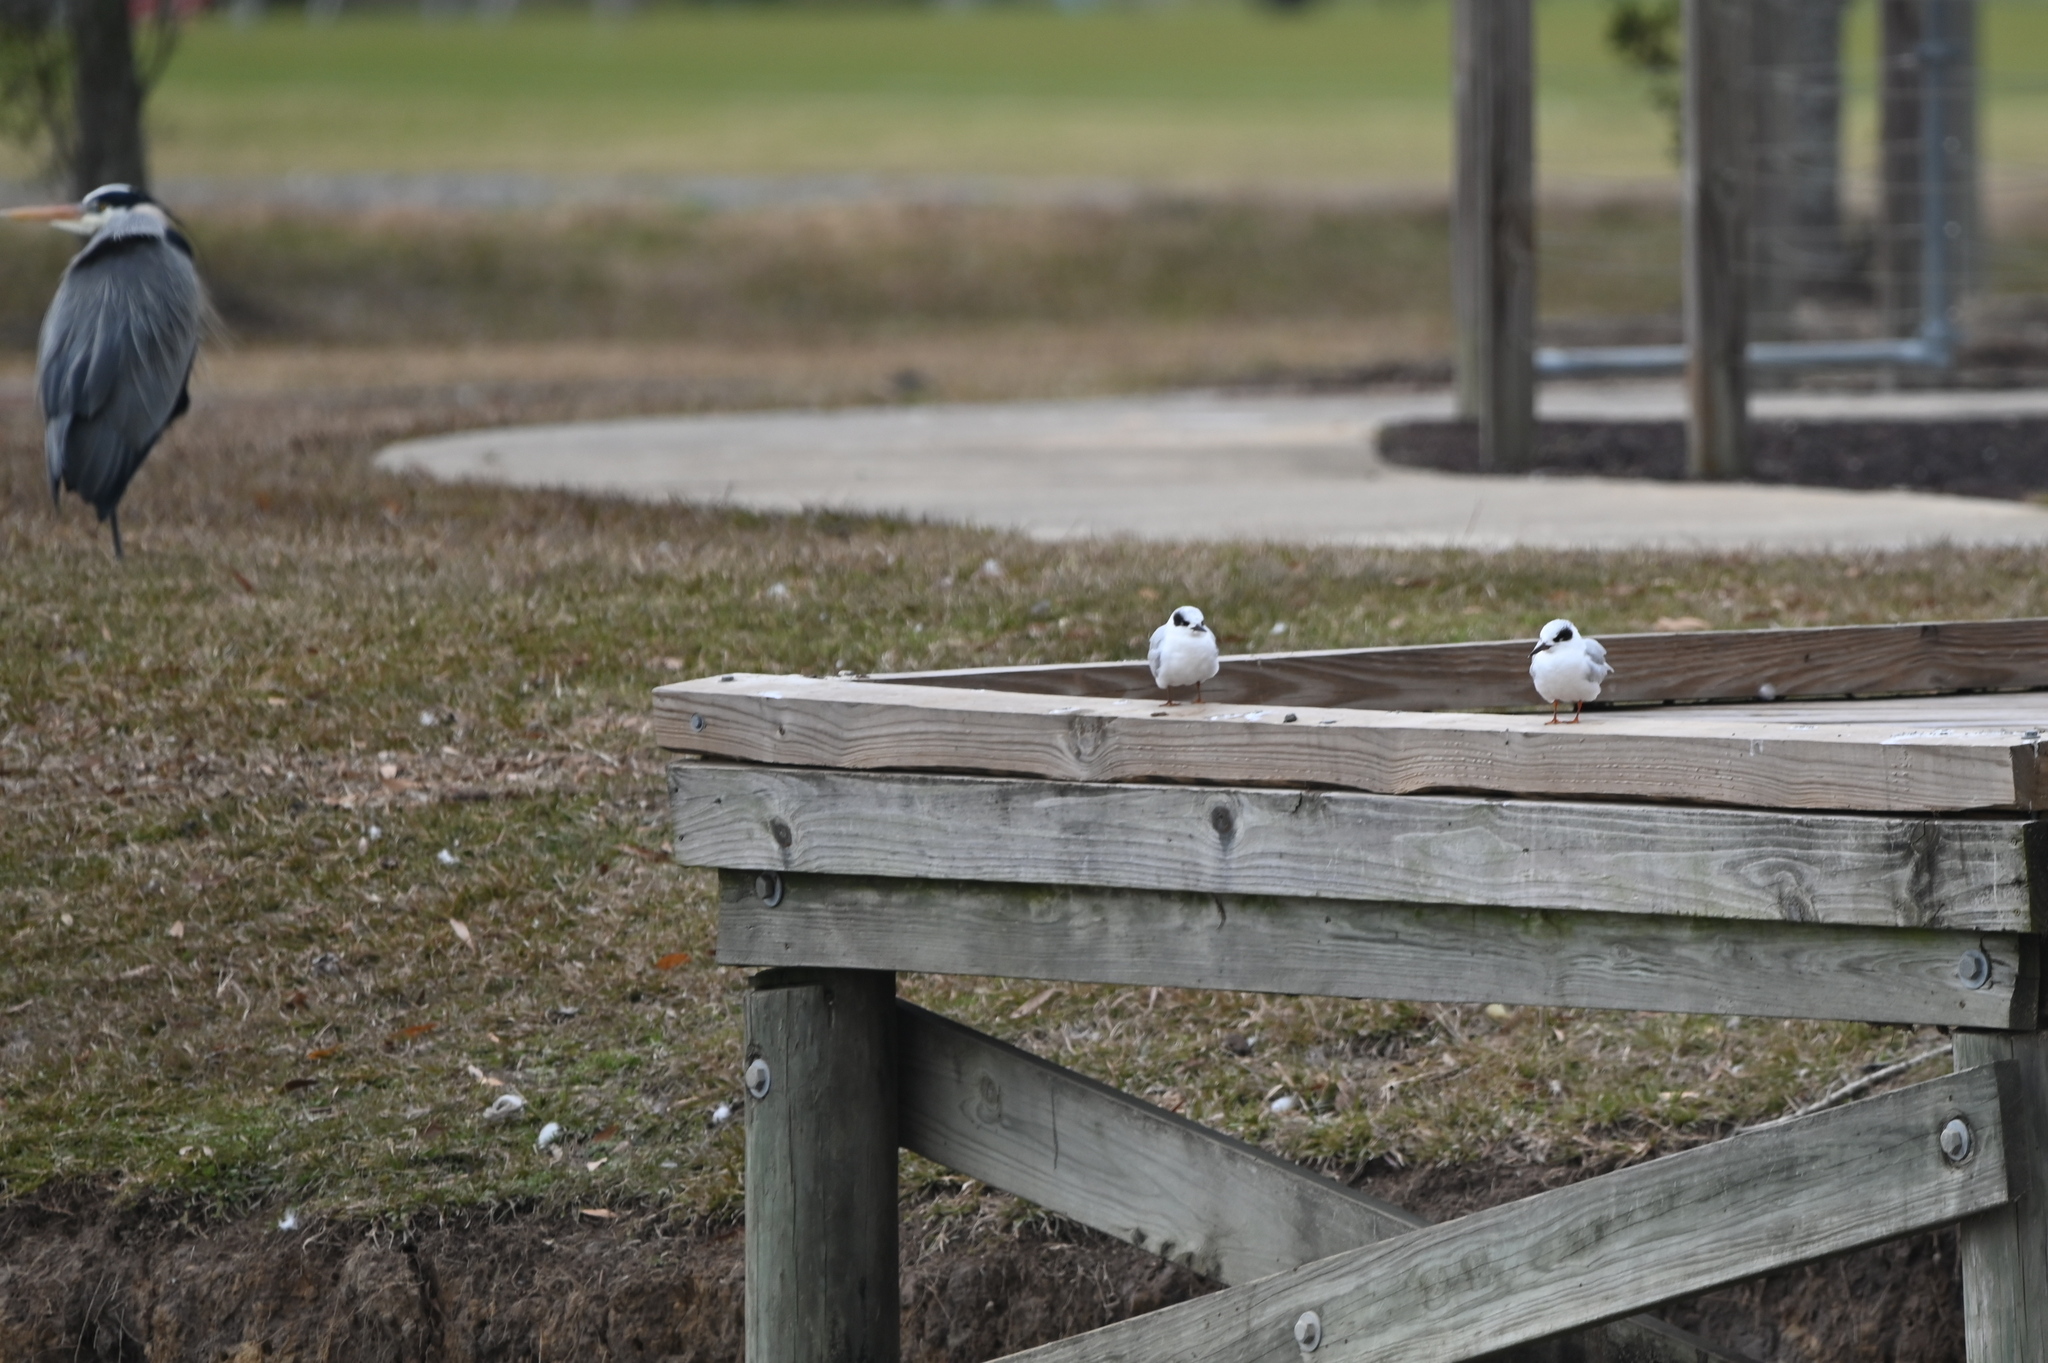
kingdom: Animalia
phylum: Chordata
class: Aves
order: Charadriiformes
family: Laridae
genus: Sterna
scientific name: Sterna forsteri
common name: Forster's tern
